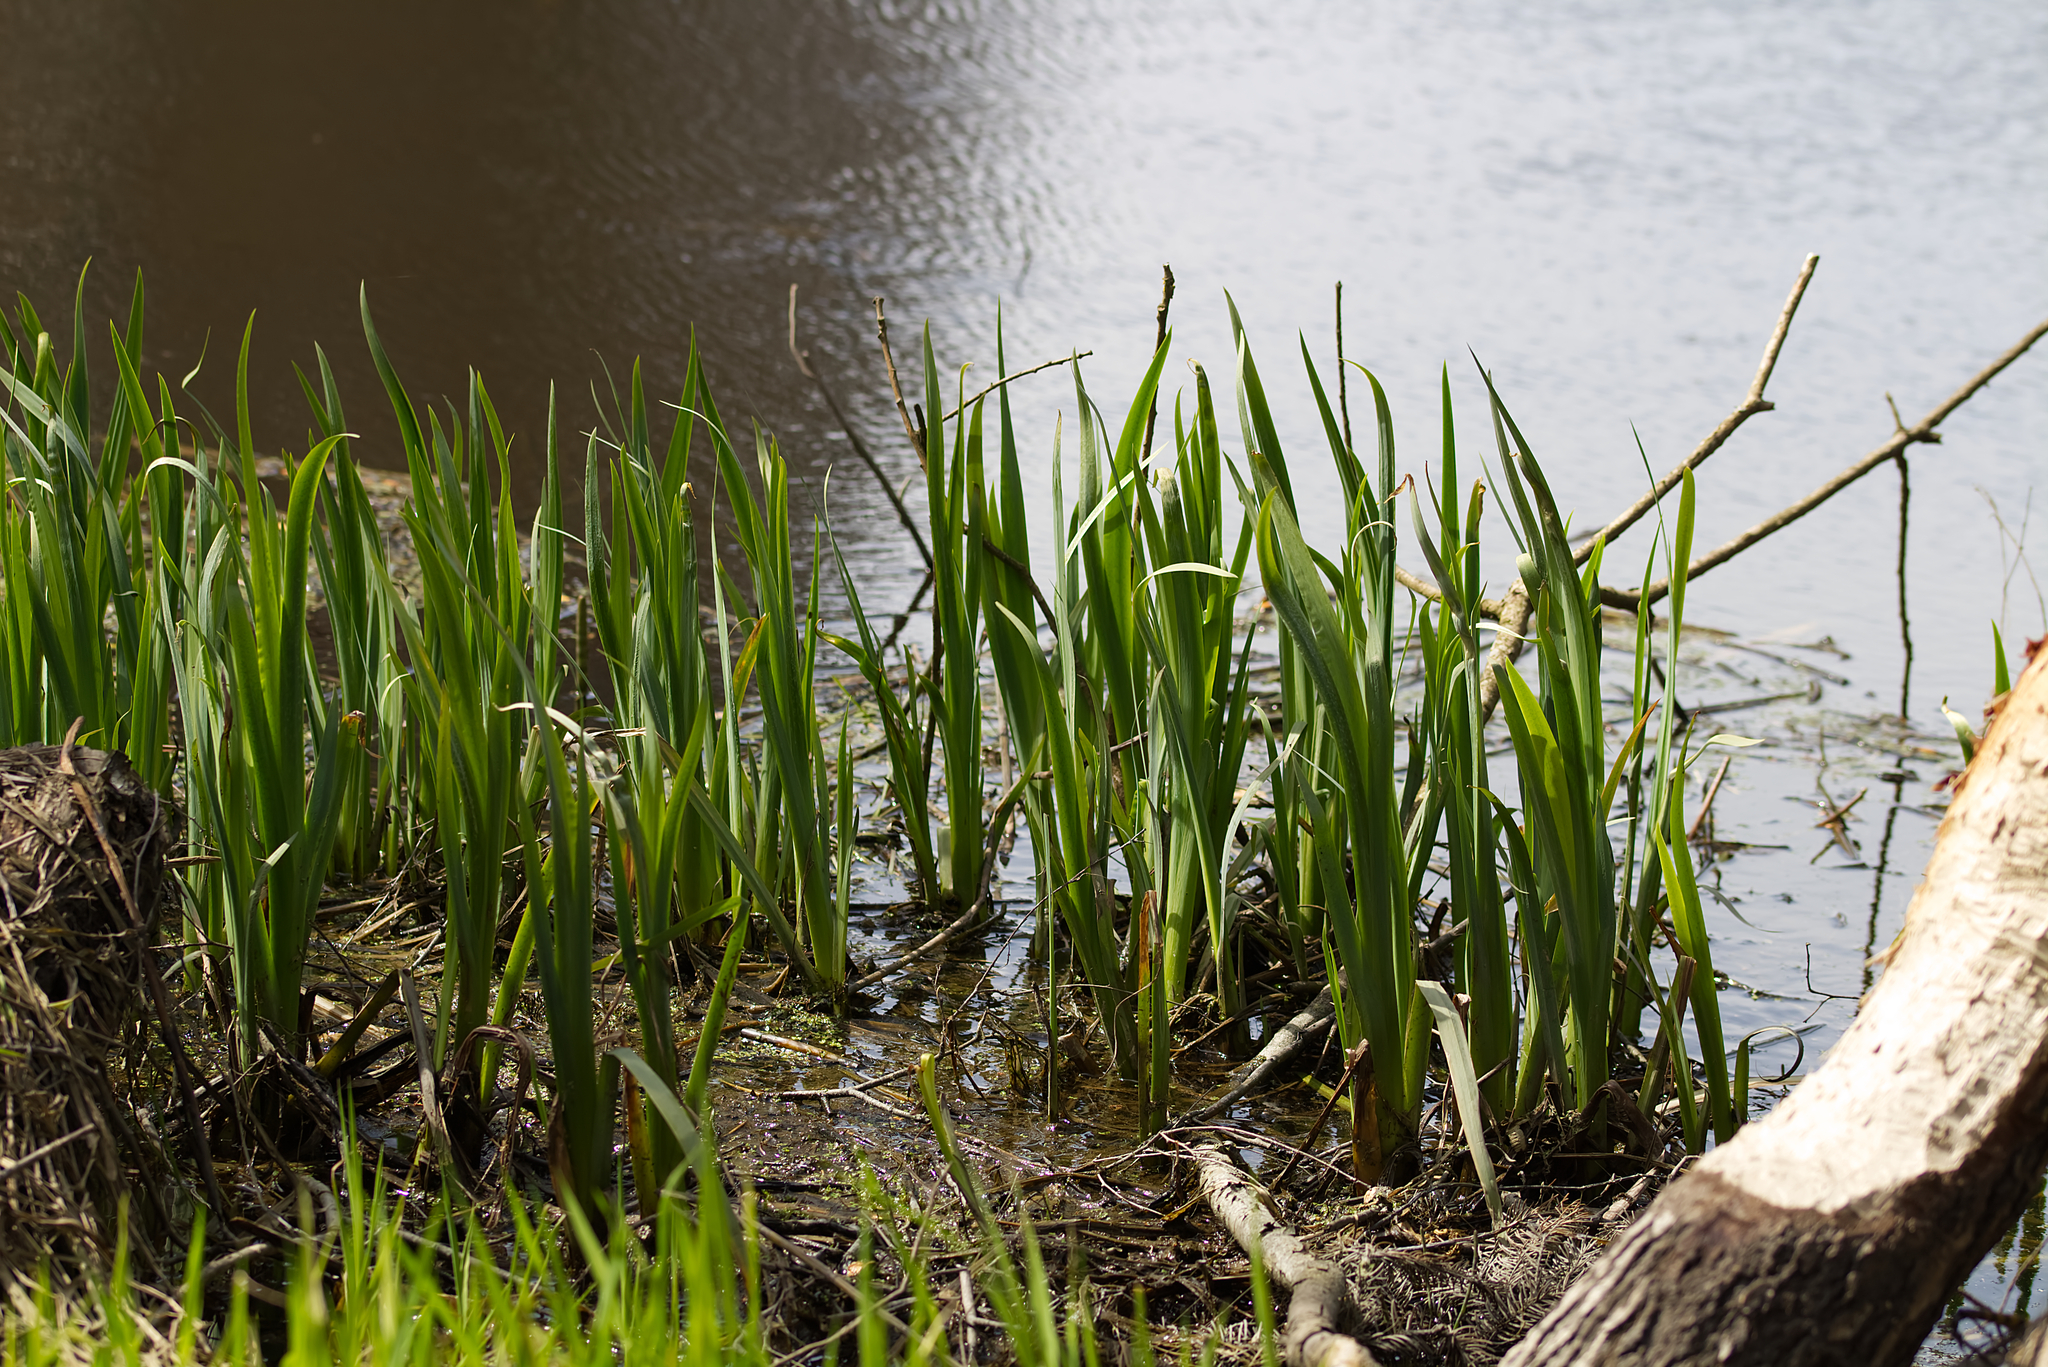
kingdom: Plantae
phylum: Tracheophyta
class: Liliopsida
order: Asparagales
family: Iridaceae
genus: Iris
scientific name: Iris pseudacorus
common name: Yellow flag
